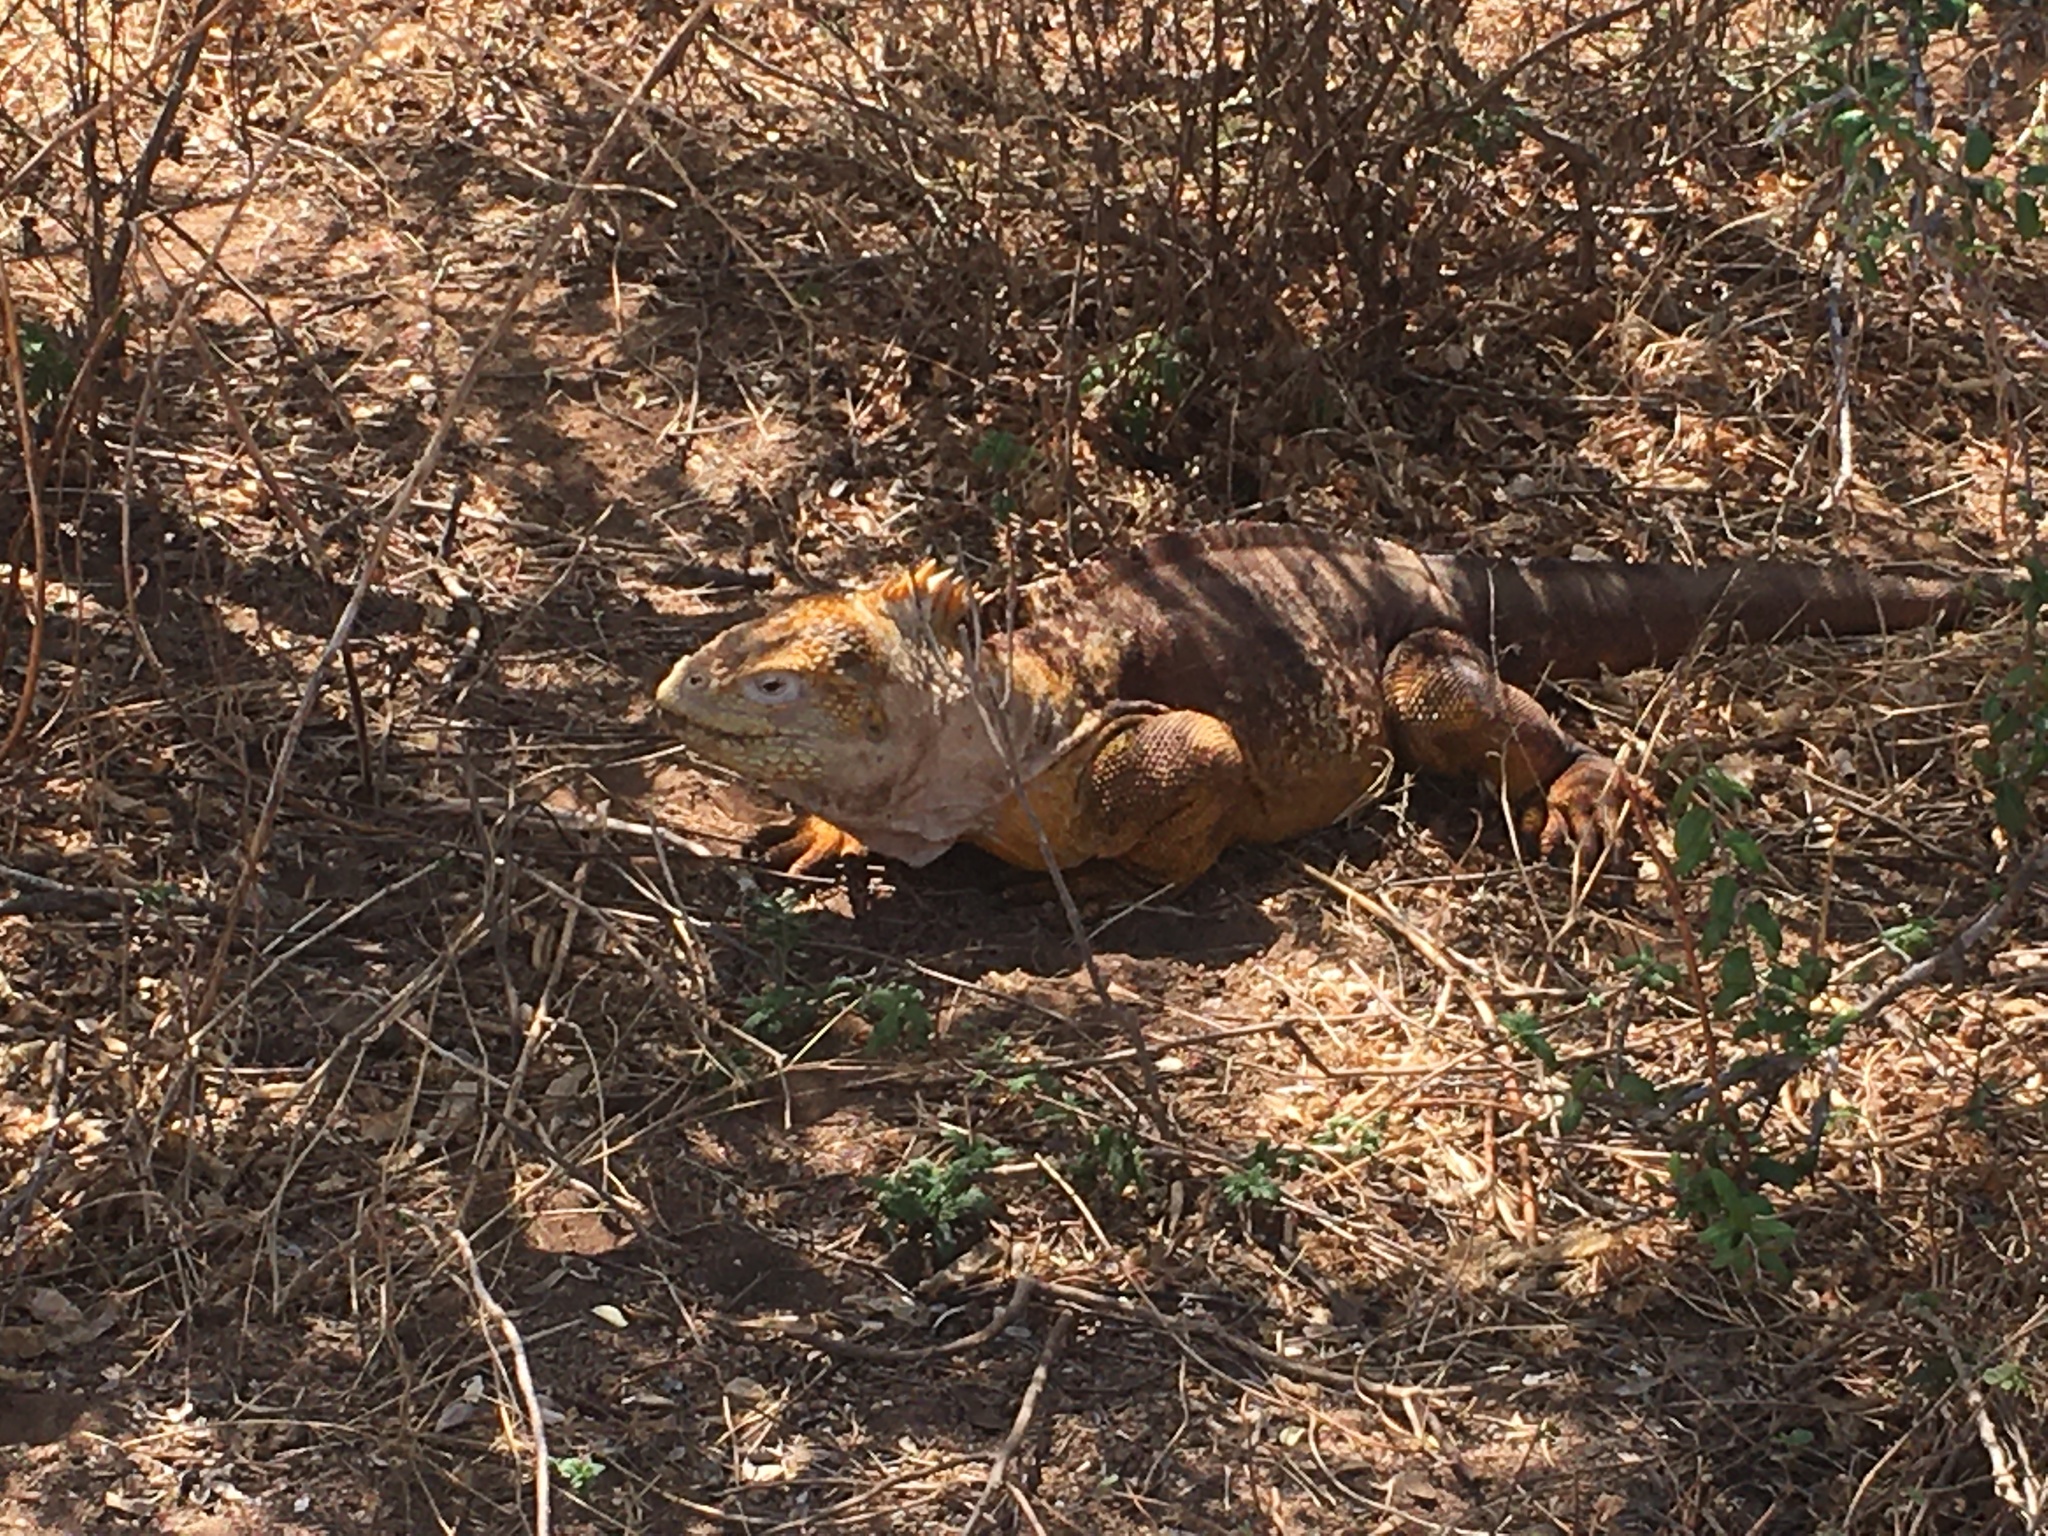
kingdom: Animalia
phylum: Chordata
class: Squamata
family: Iguanidae
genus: Conolophus
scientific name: Conolophus subcristatus
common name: Galapagos land iguana
